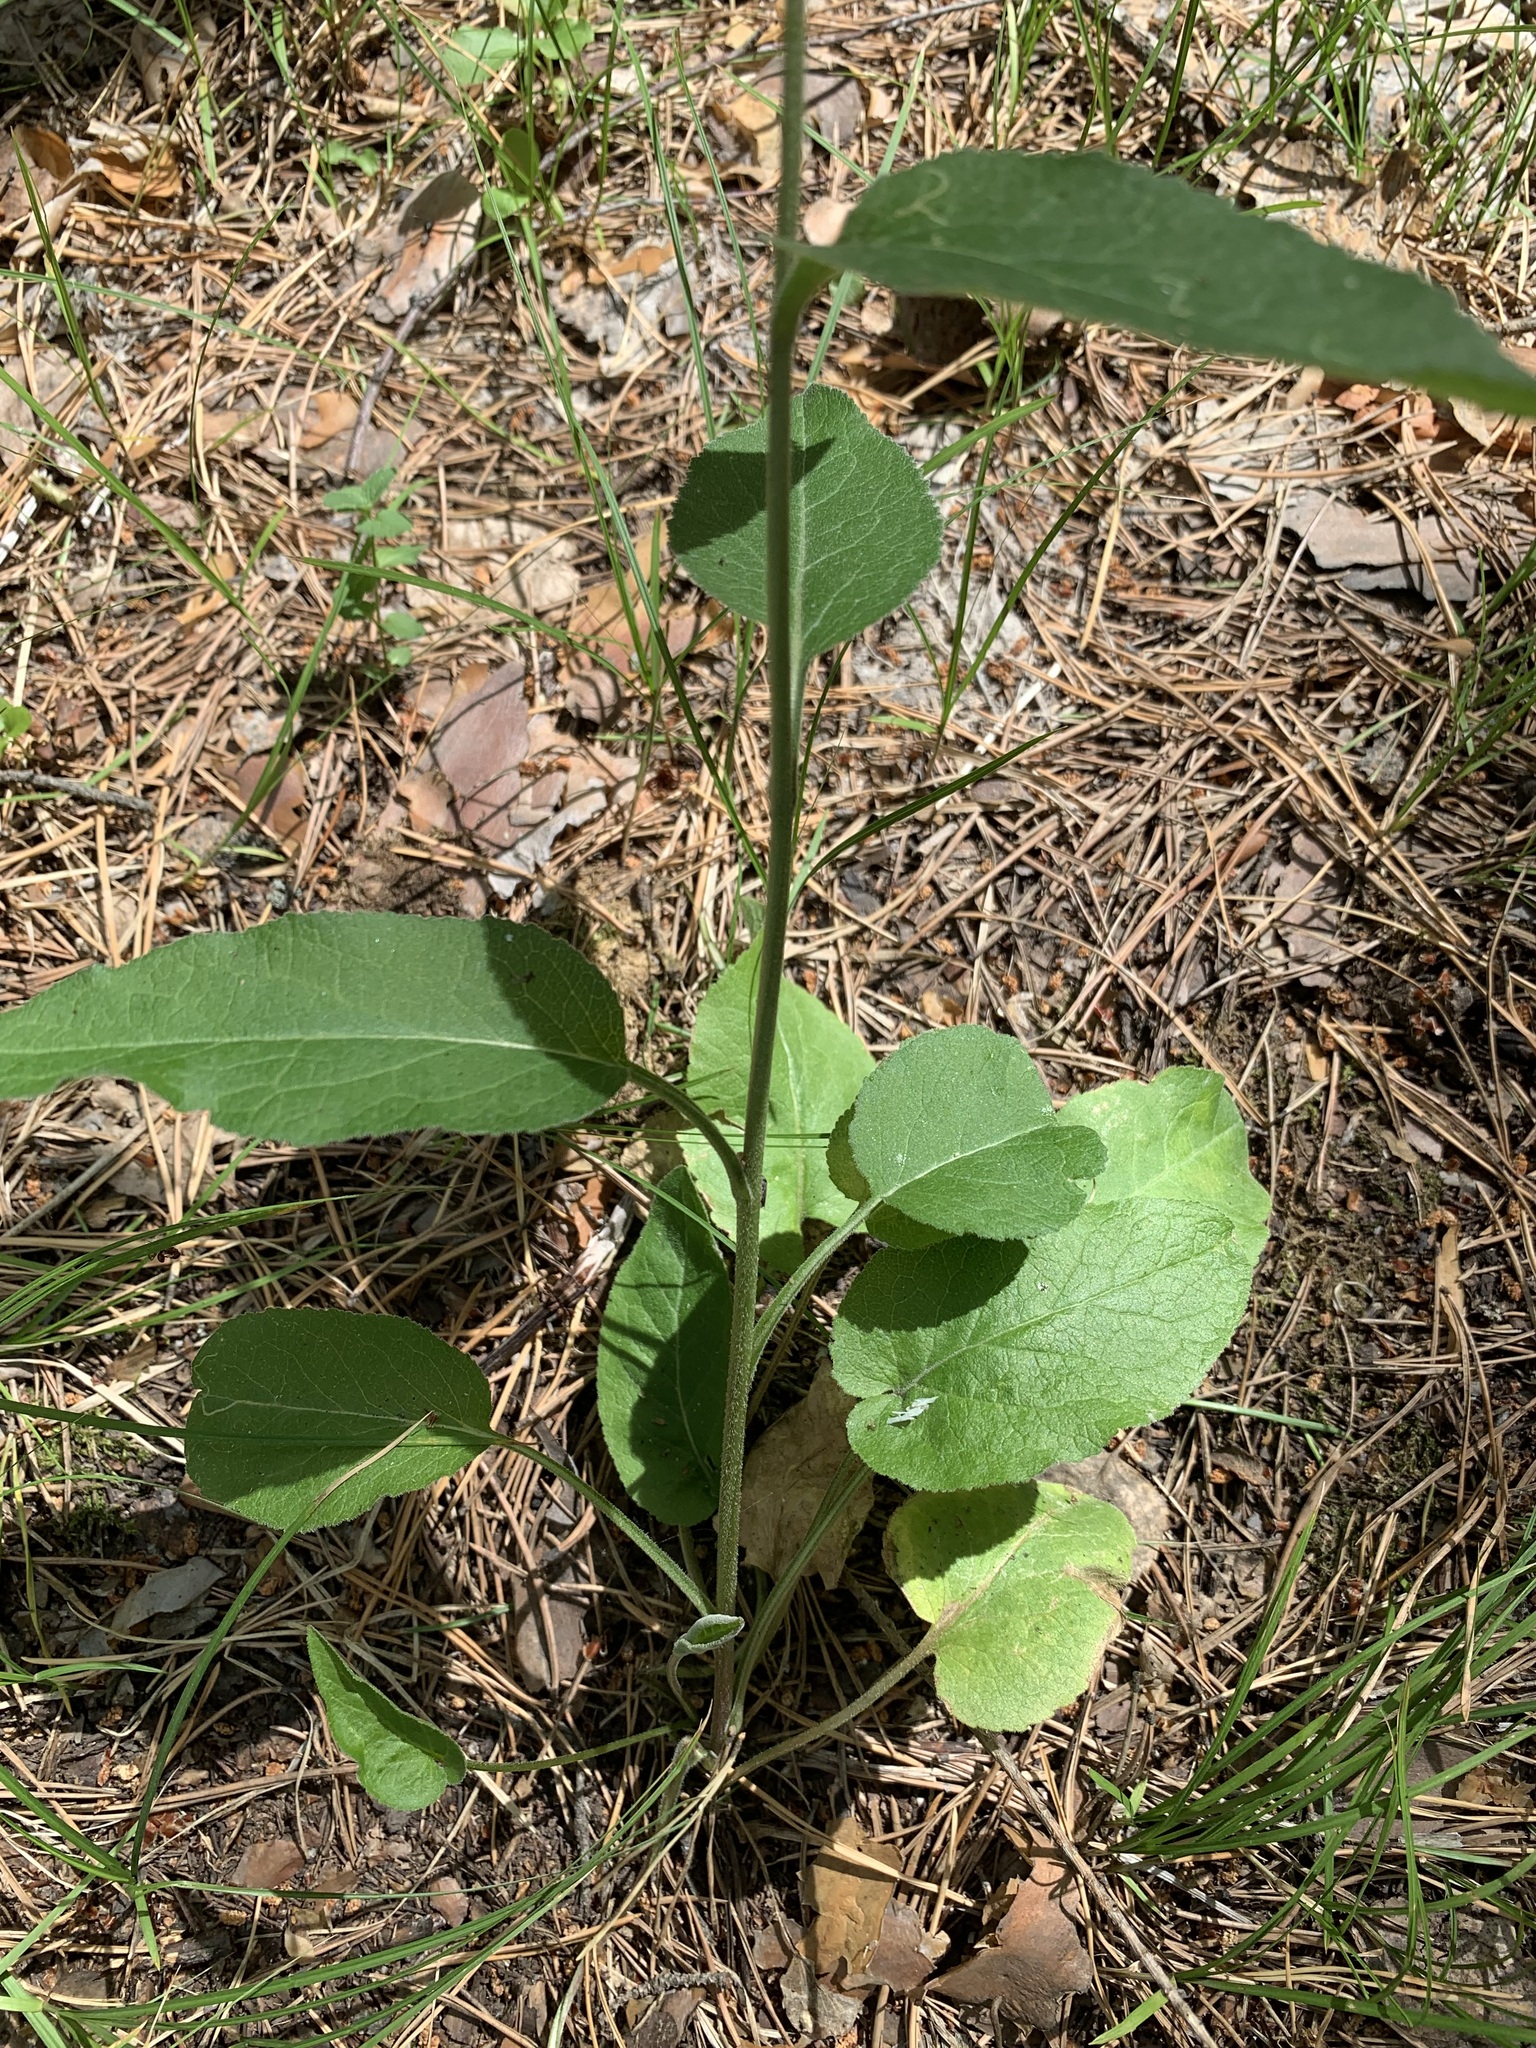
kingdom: Plantae
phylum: Tracheophyta
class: Magnoliopsida
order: Asterales
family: Campanulaceae
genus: Campanula
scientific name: Campanula glomerata
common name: Clustered bellflower
